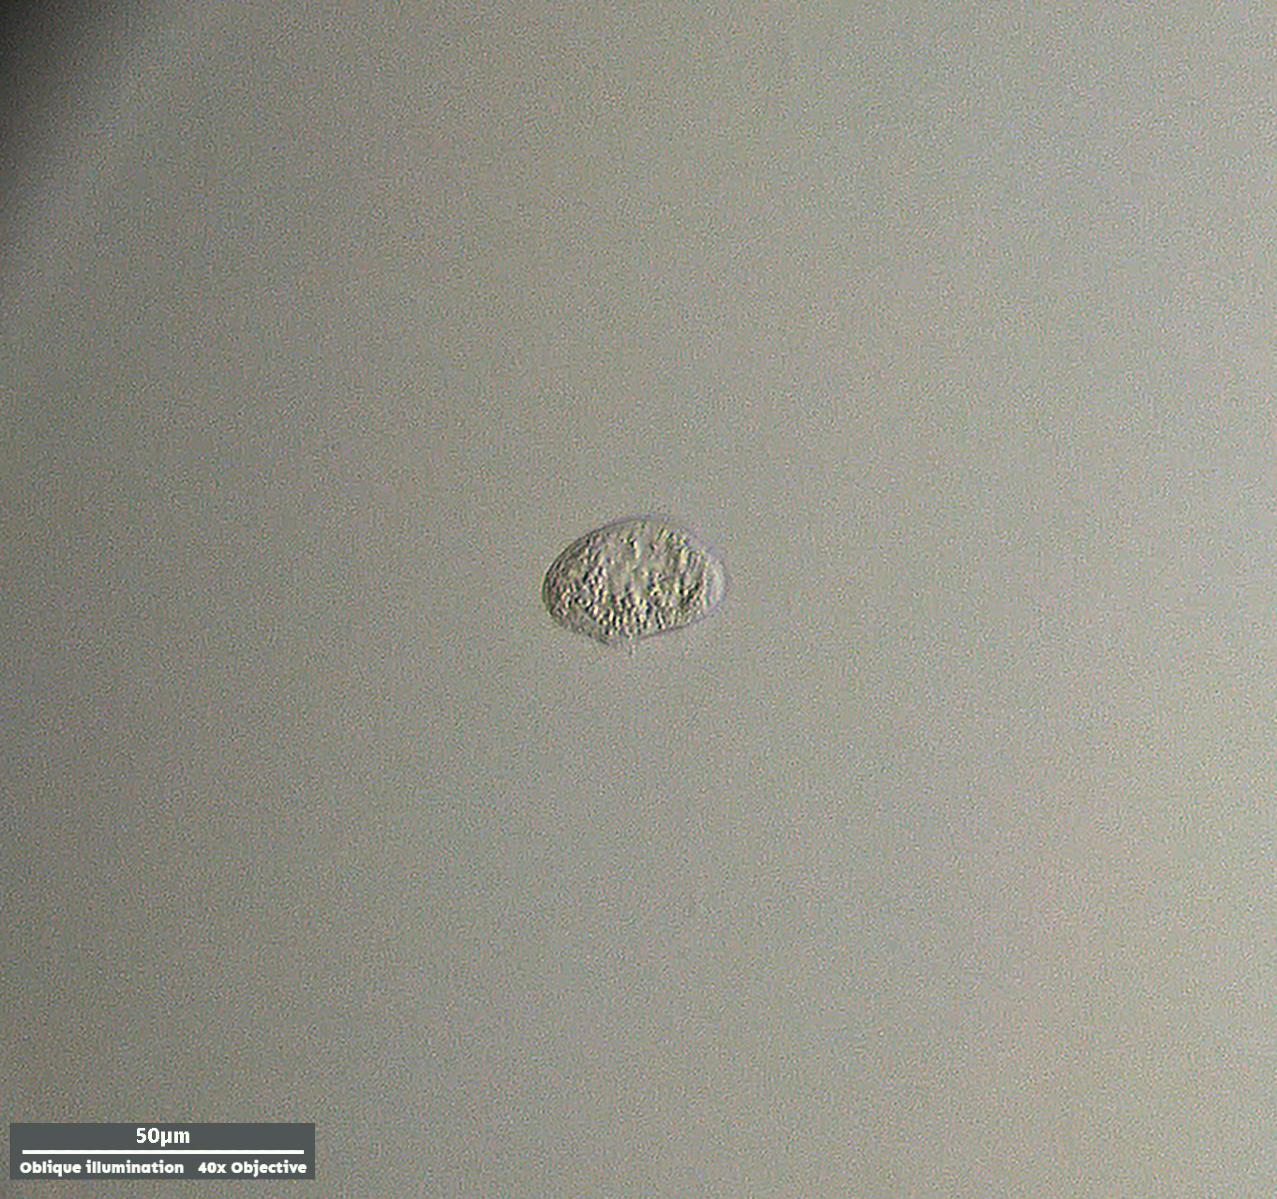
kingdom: Chromista
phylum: Ciliophora
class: Nassophorea
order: Nassulida
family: Leptopharynidae
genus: Leptopharynx
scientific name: Leptopharynx costatus
